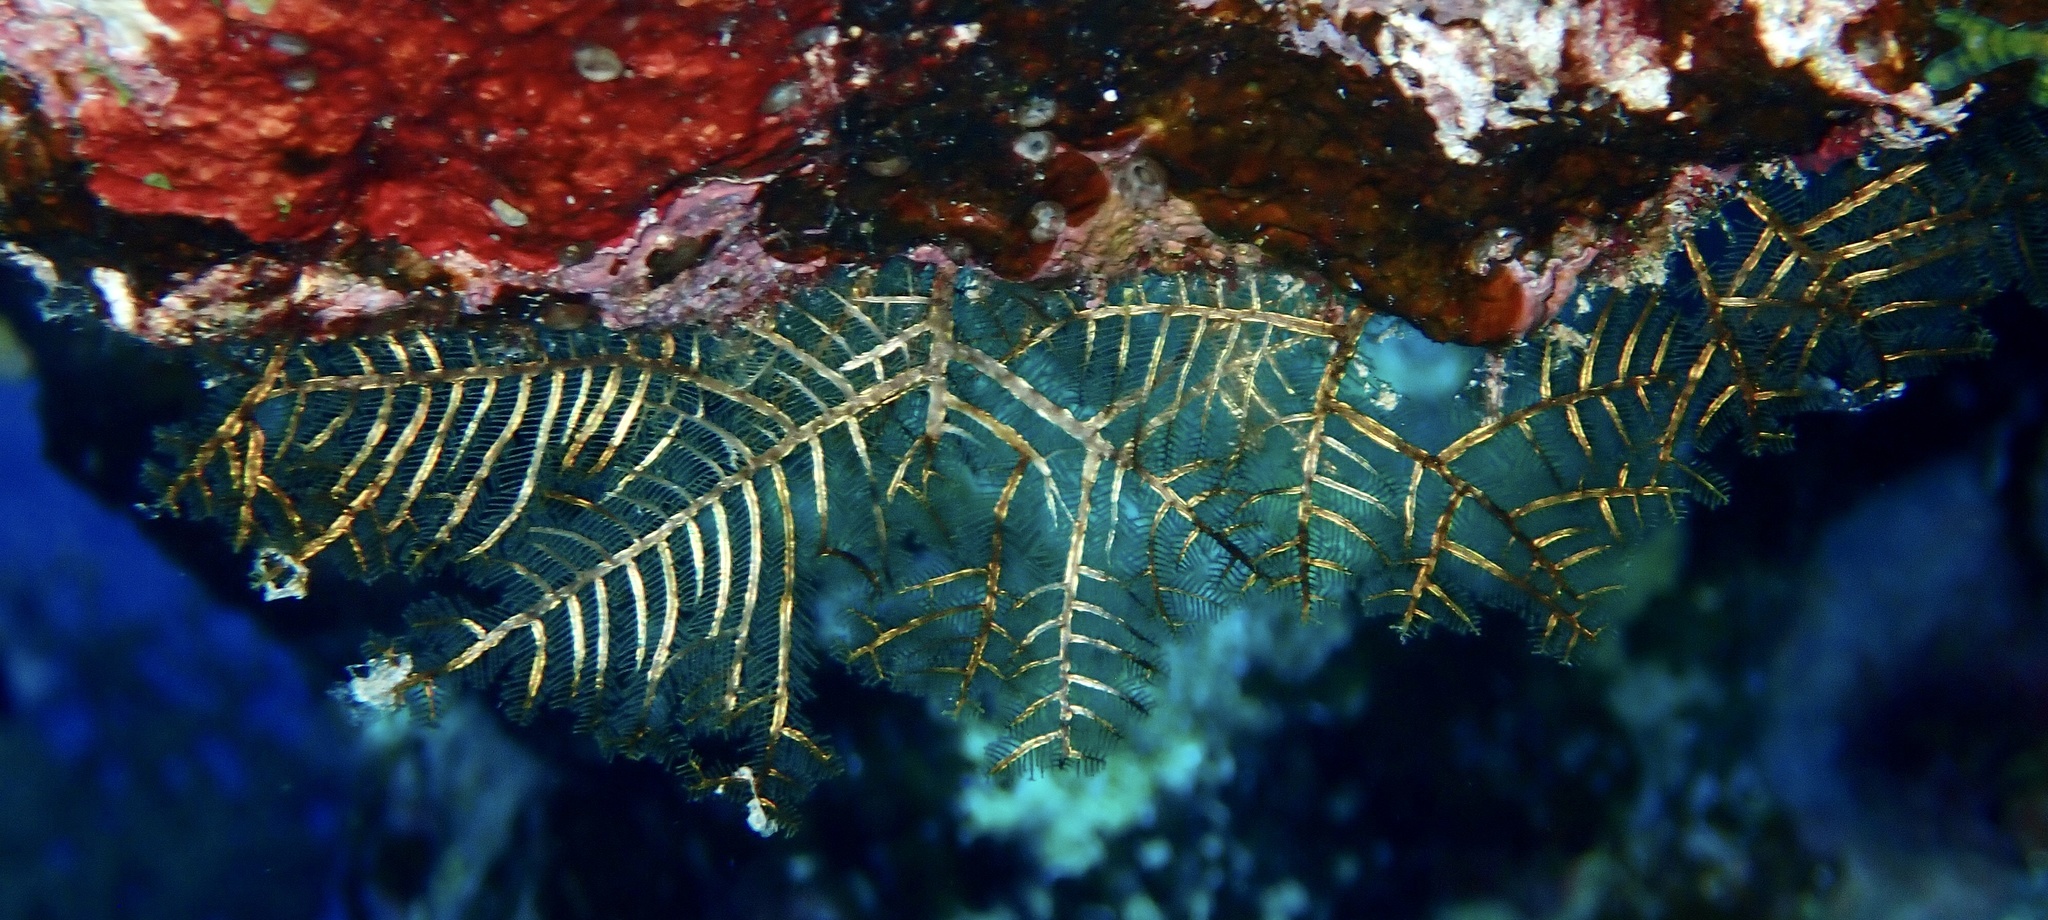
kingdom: Animalia
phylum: Cnidaria
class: Hydrozoa
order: Leptothecata
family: Aglaopheniidae
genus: Macrorhynchia
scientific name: Macrorhynchia phoenicea
